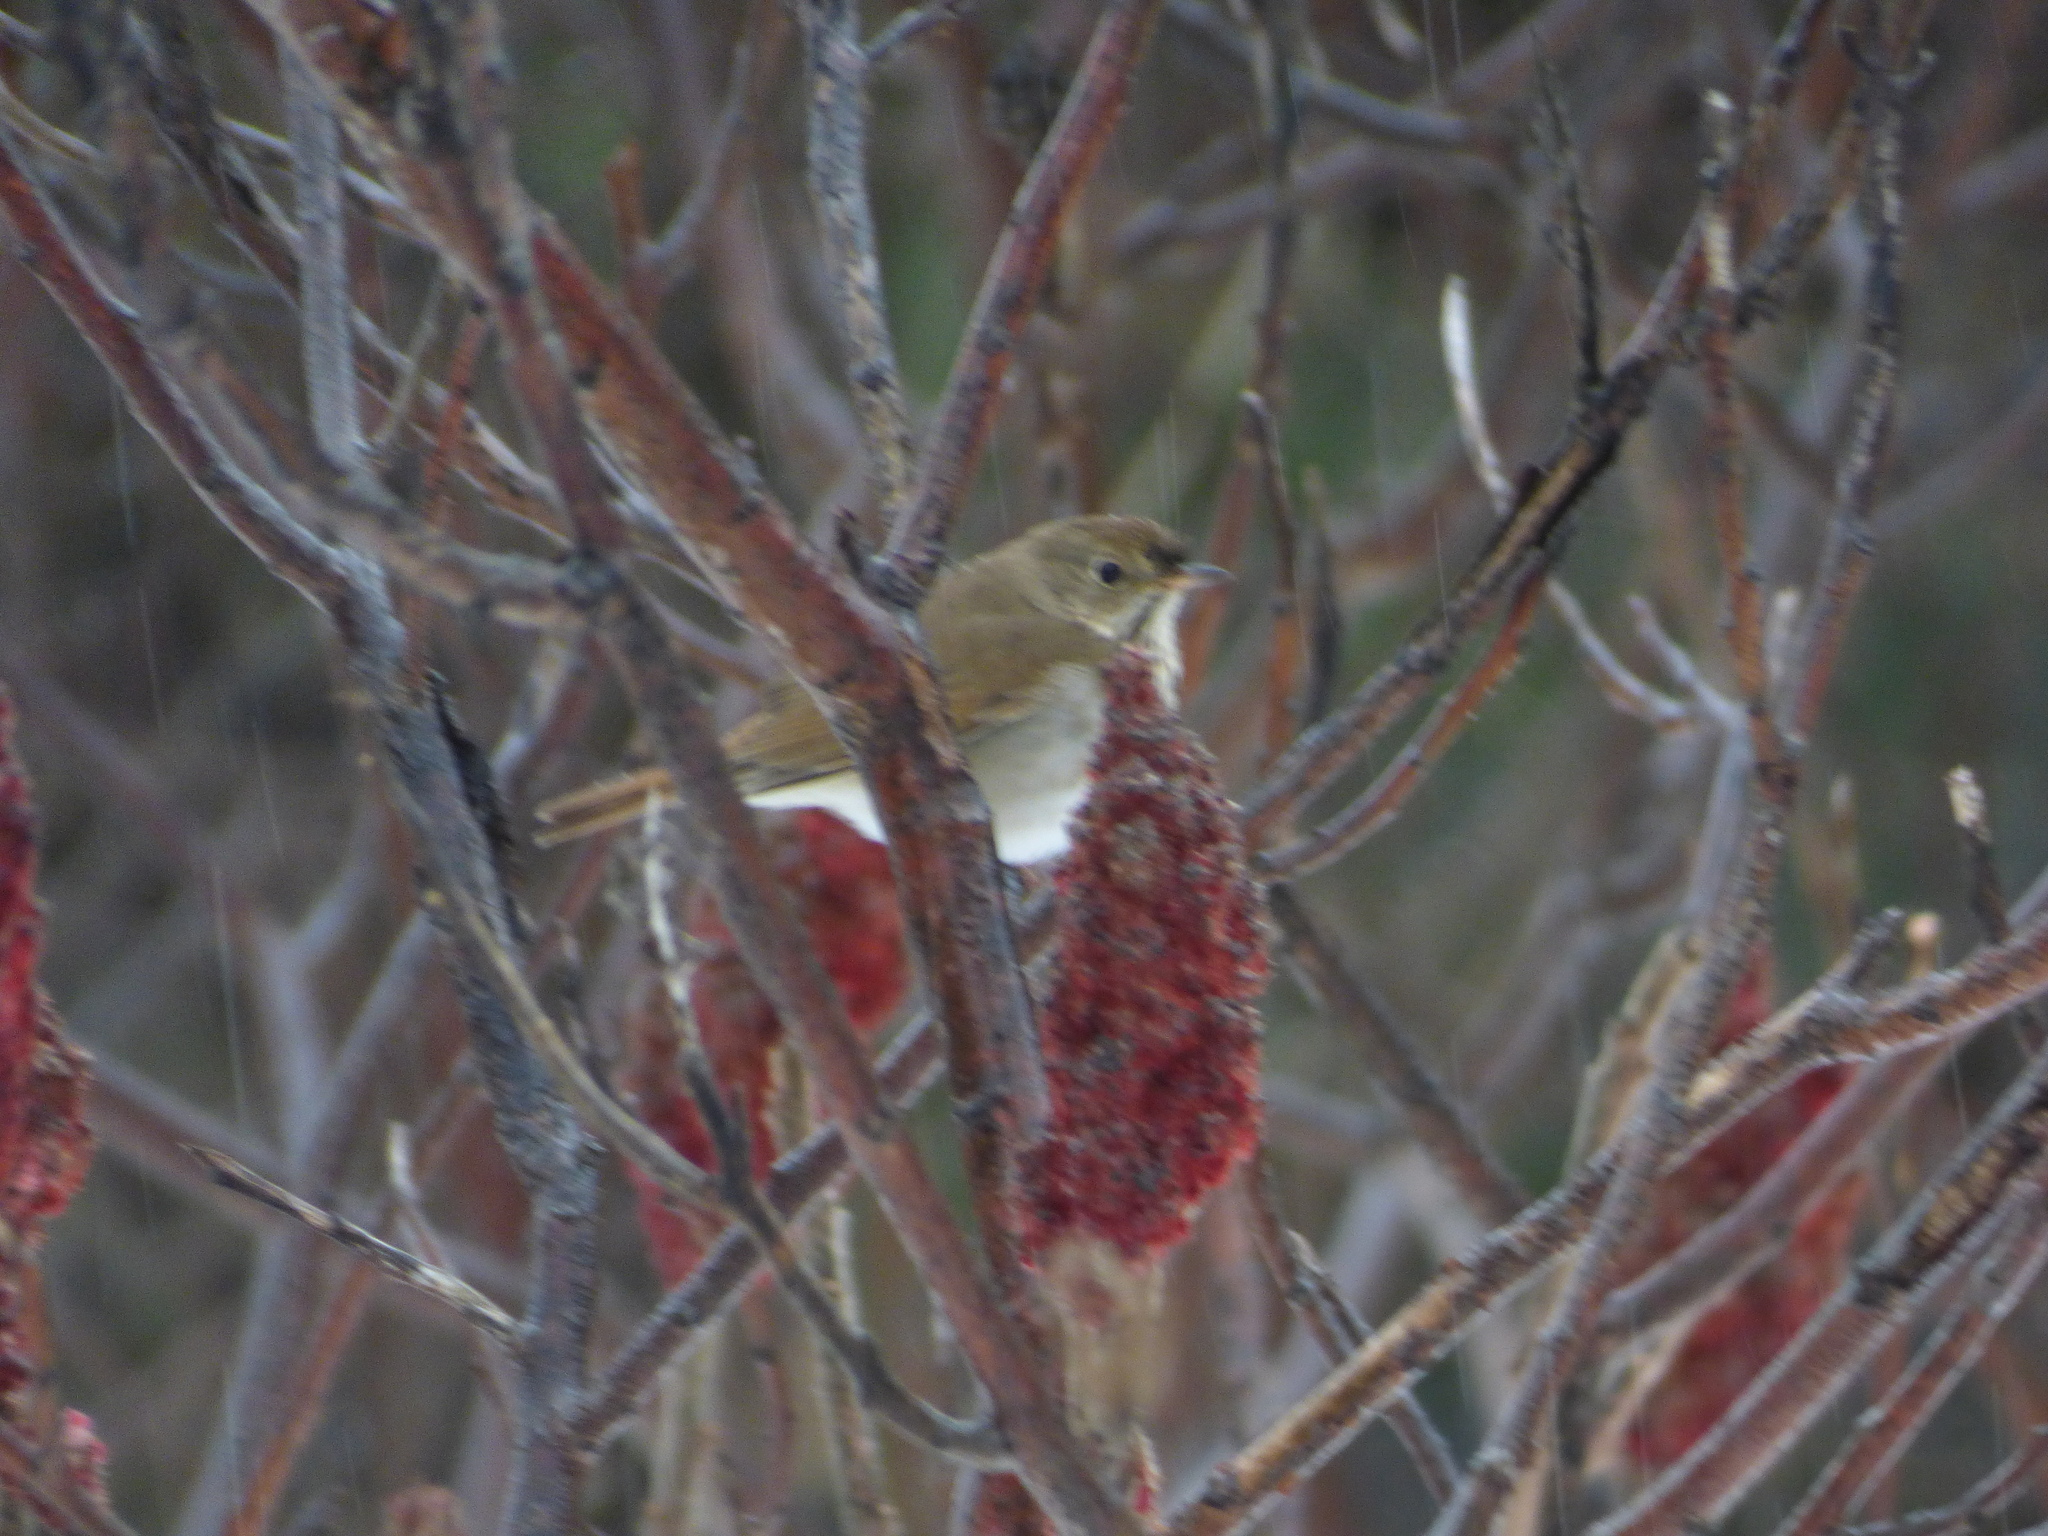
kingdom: Animalia
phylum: Chordata
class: Aves
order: Passeriformes
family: Turdidae
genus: Catharus
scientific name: Catharus guttatus
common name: Hermit thrush
